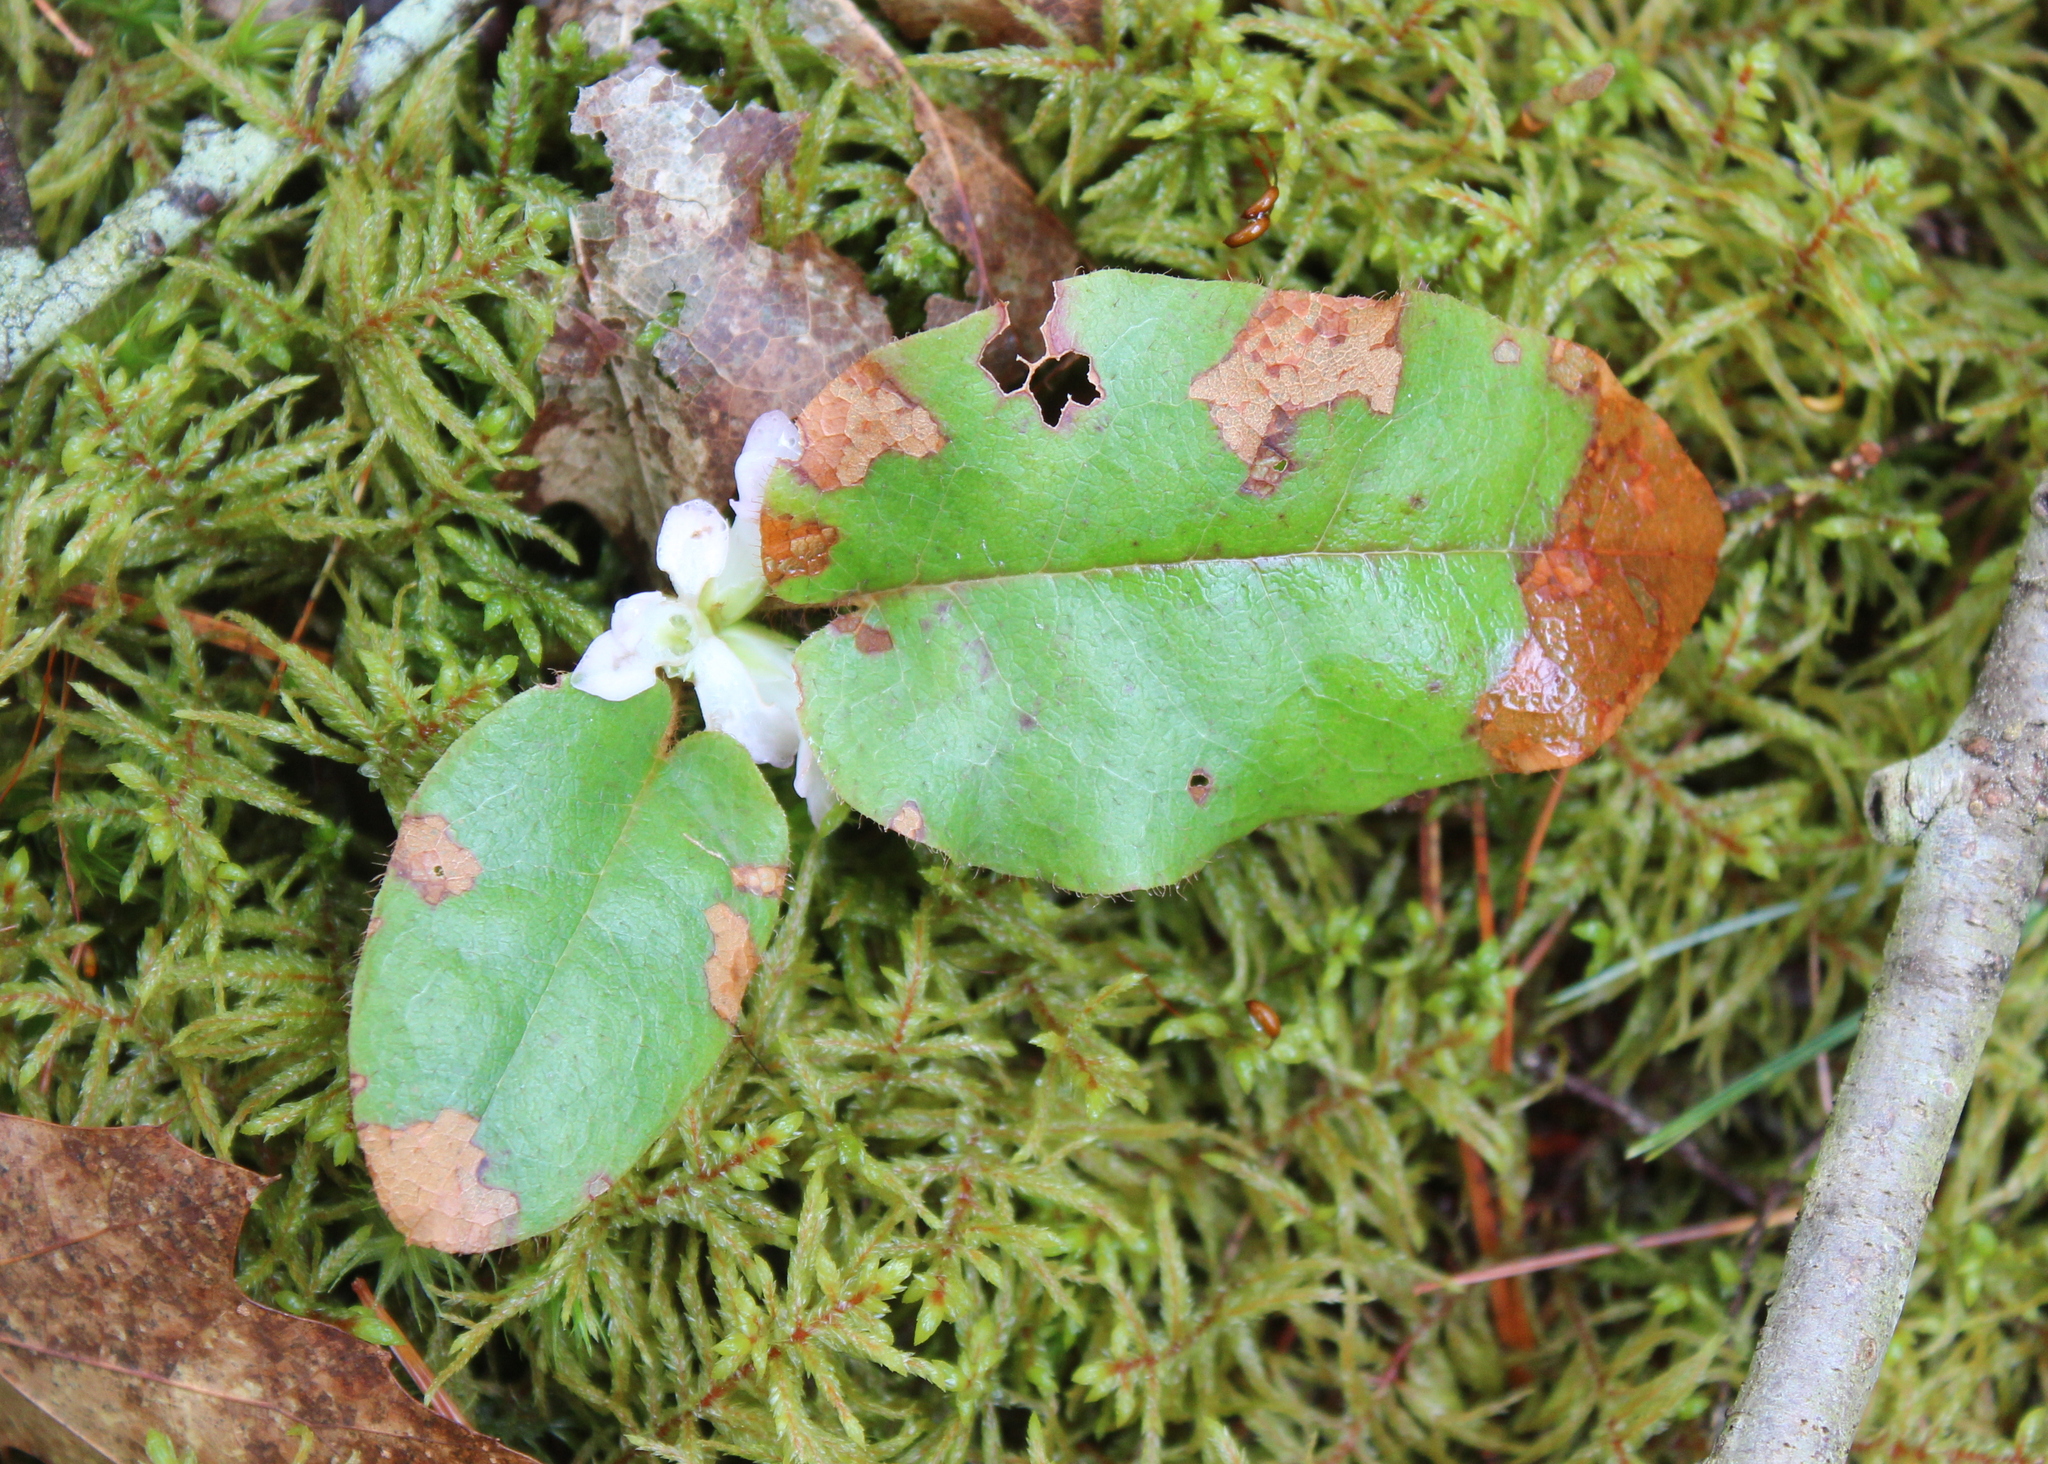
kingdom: Plantae
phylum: Tracheophyta
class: Magnoliopsida
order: Ericales
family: Ericaceae
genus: Epigaea
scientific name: Epigaea repens
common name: Gravelroot
